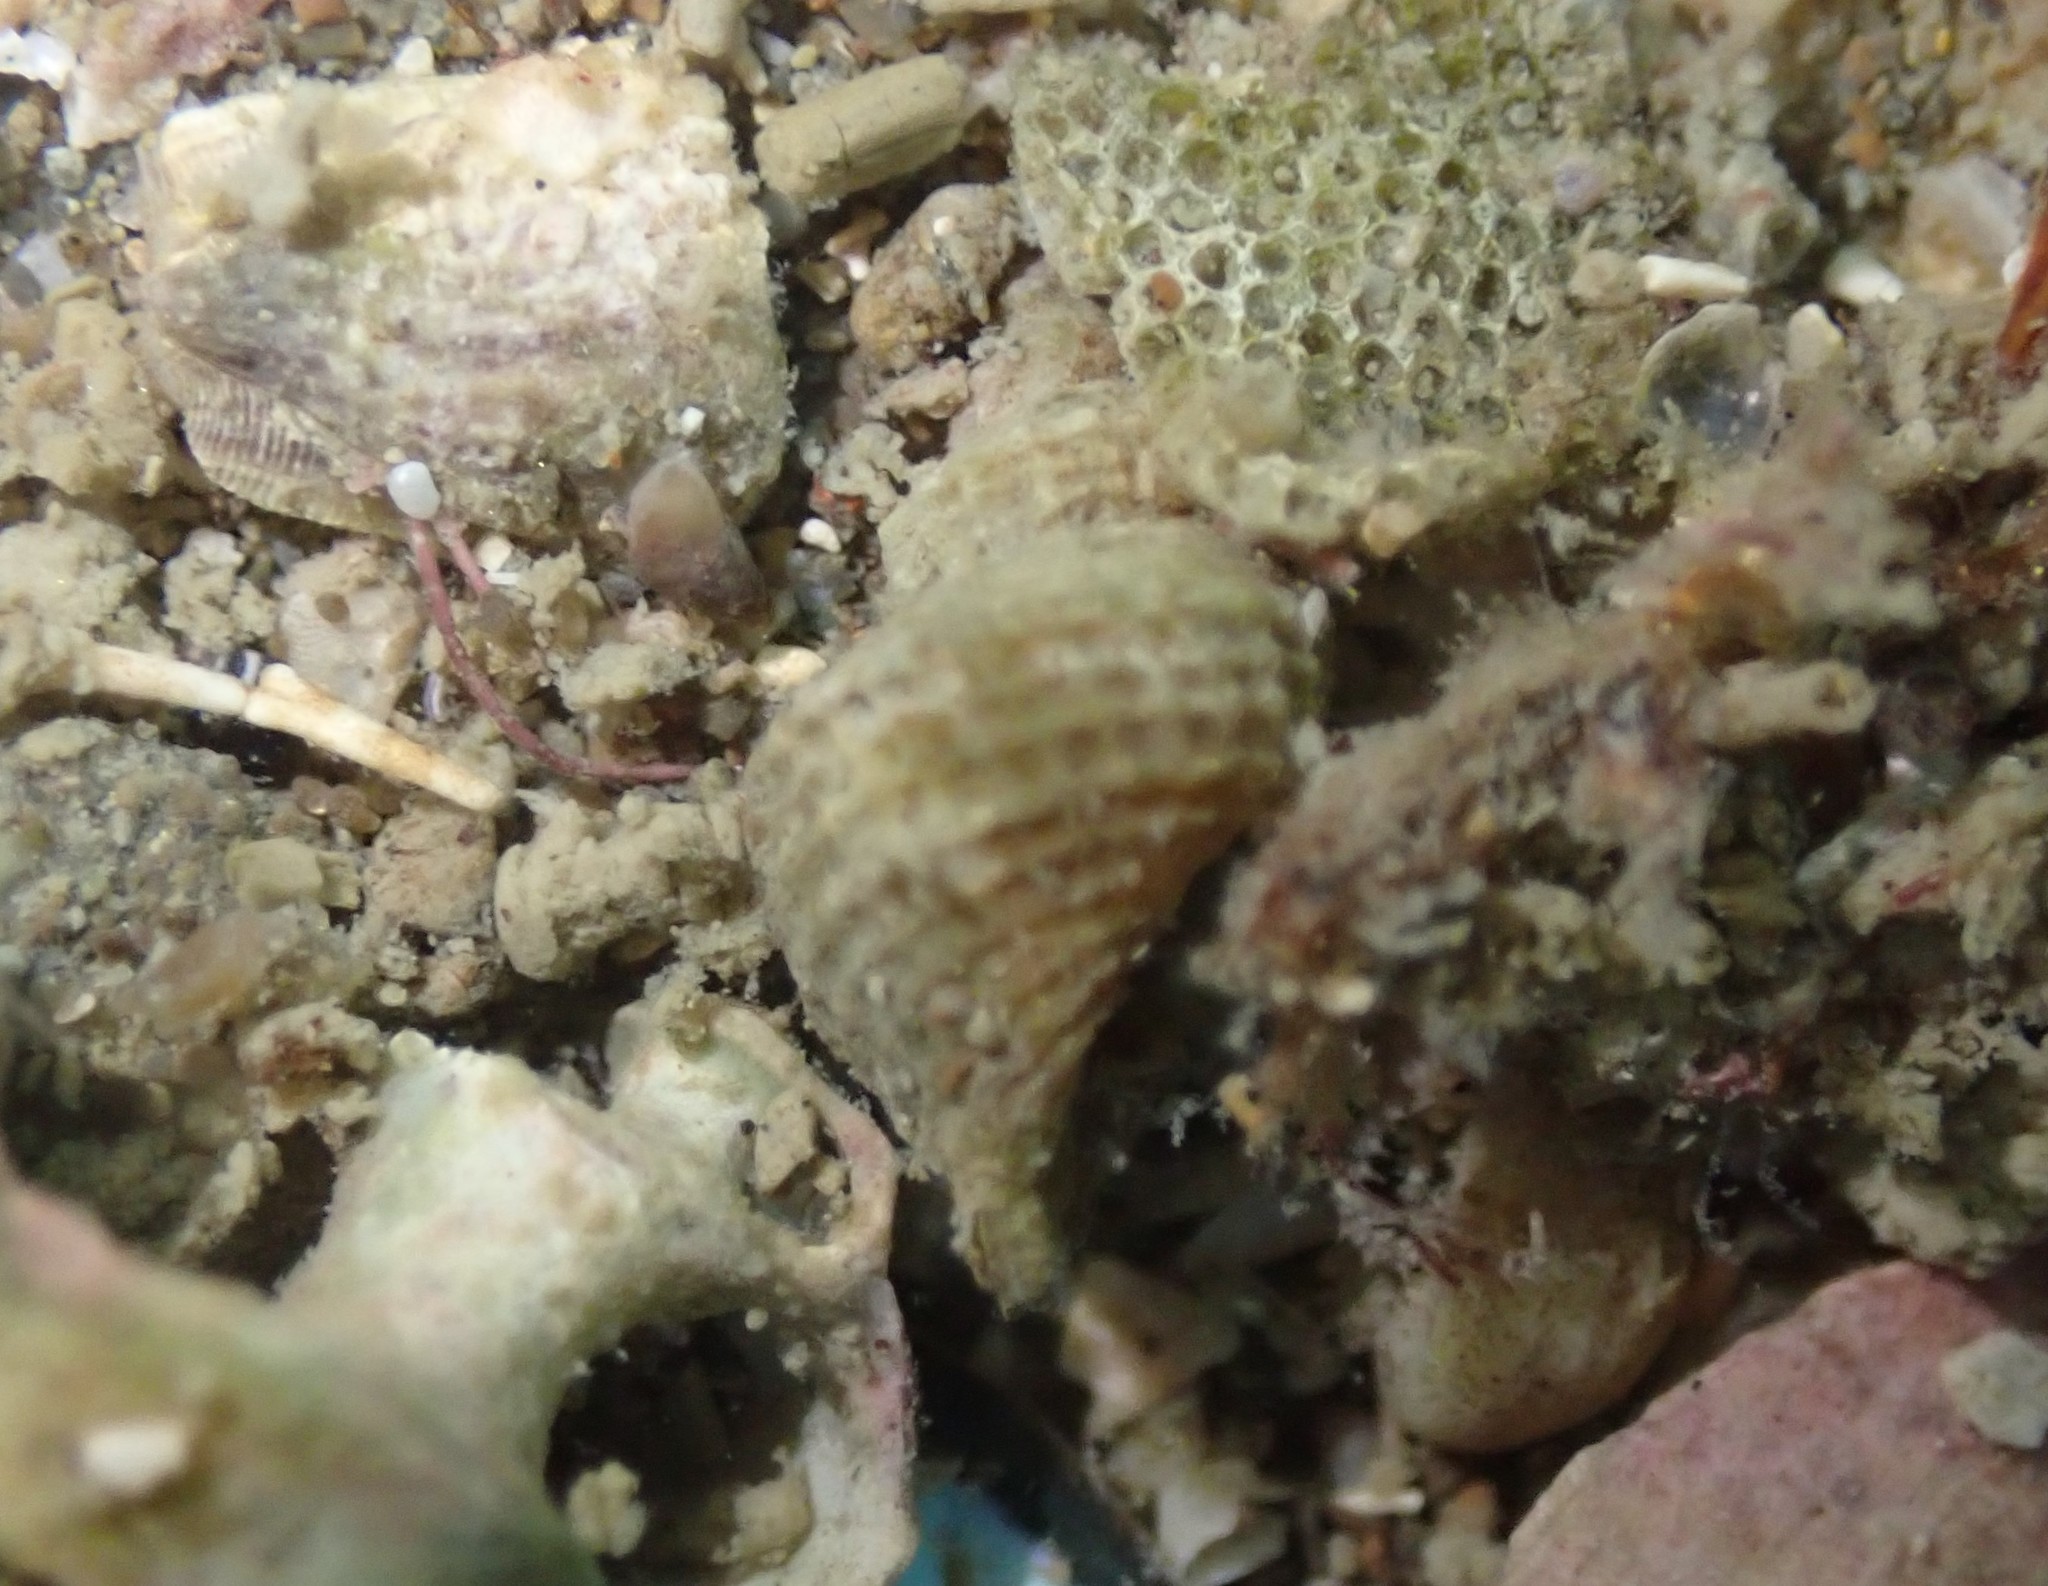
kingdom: Animalia
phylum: Mollusca
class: Gastropoda
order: Littorinimorpha
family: Capulidae
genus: Trichosirius
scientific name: Trichosirius inornatus
